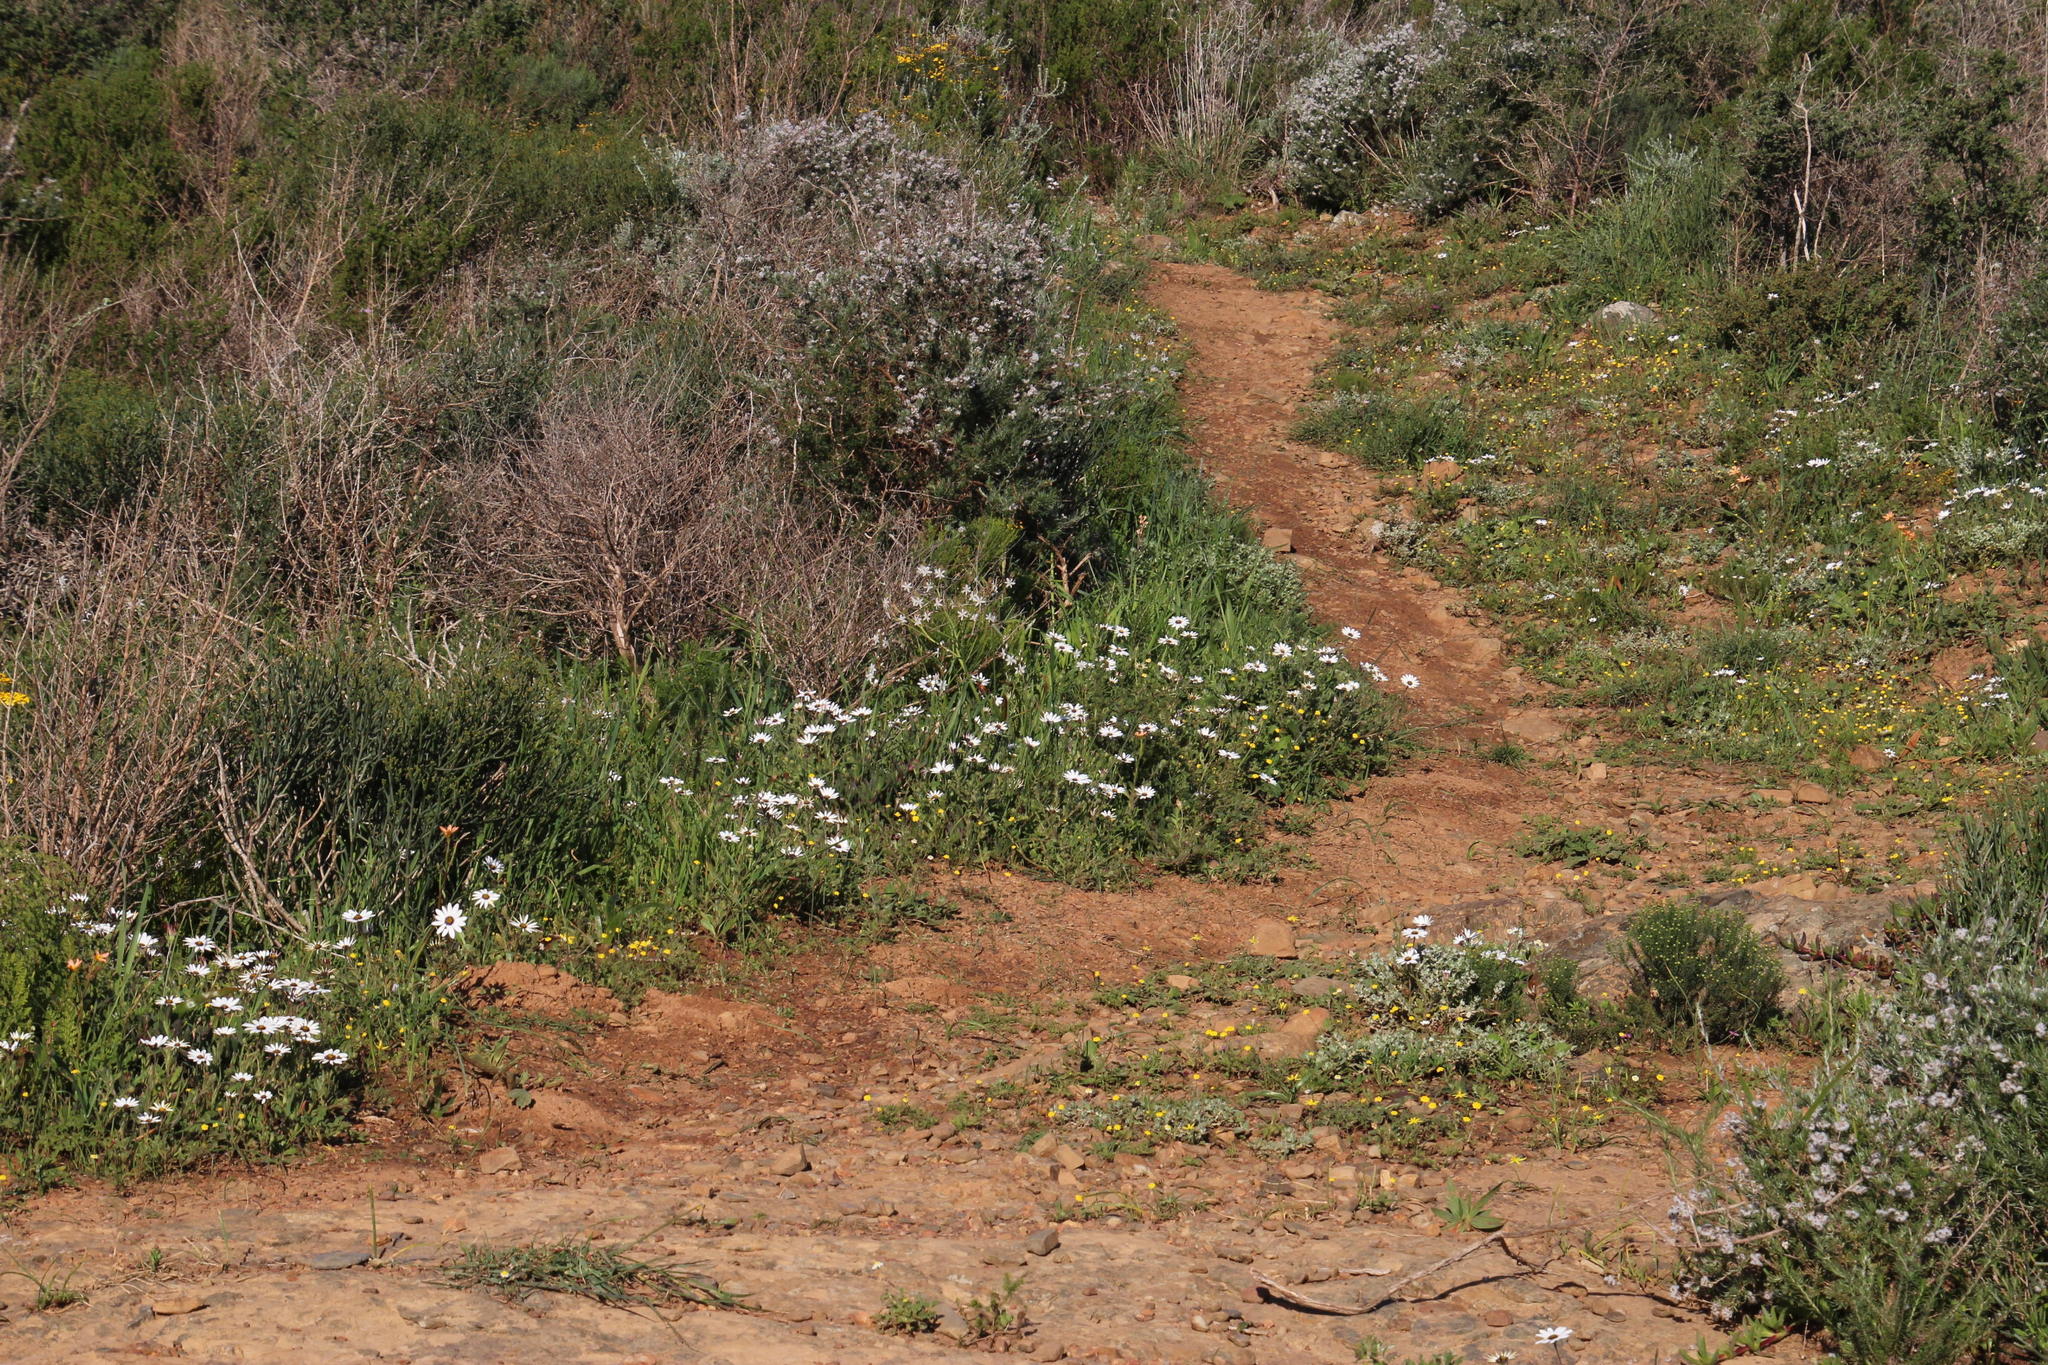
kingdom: Plantae
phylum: Tracheophyta
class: Magnoliopsida
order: Asterales
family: Asteraceae
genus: Dimorphotheca
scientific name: Dimorphotheca pluvialis
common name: Weather prophet
